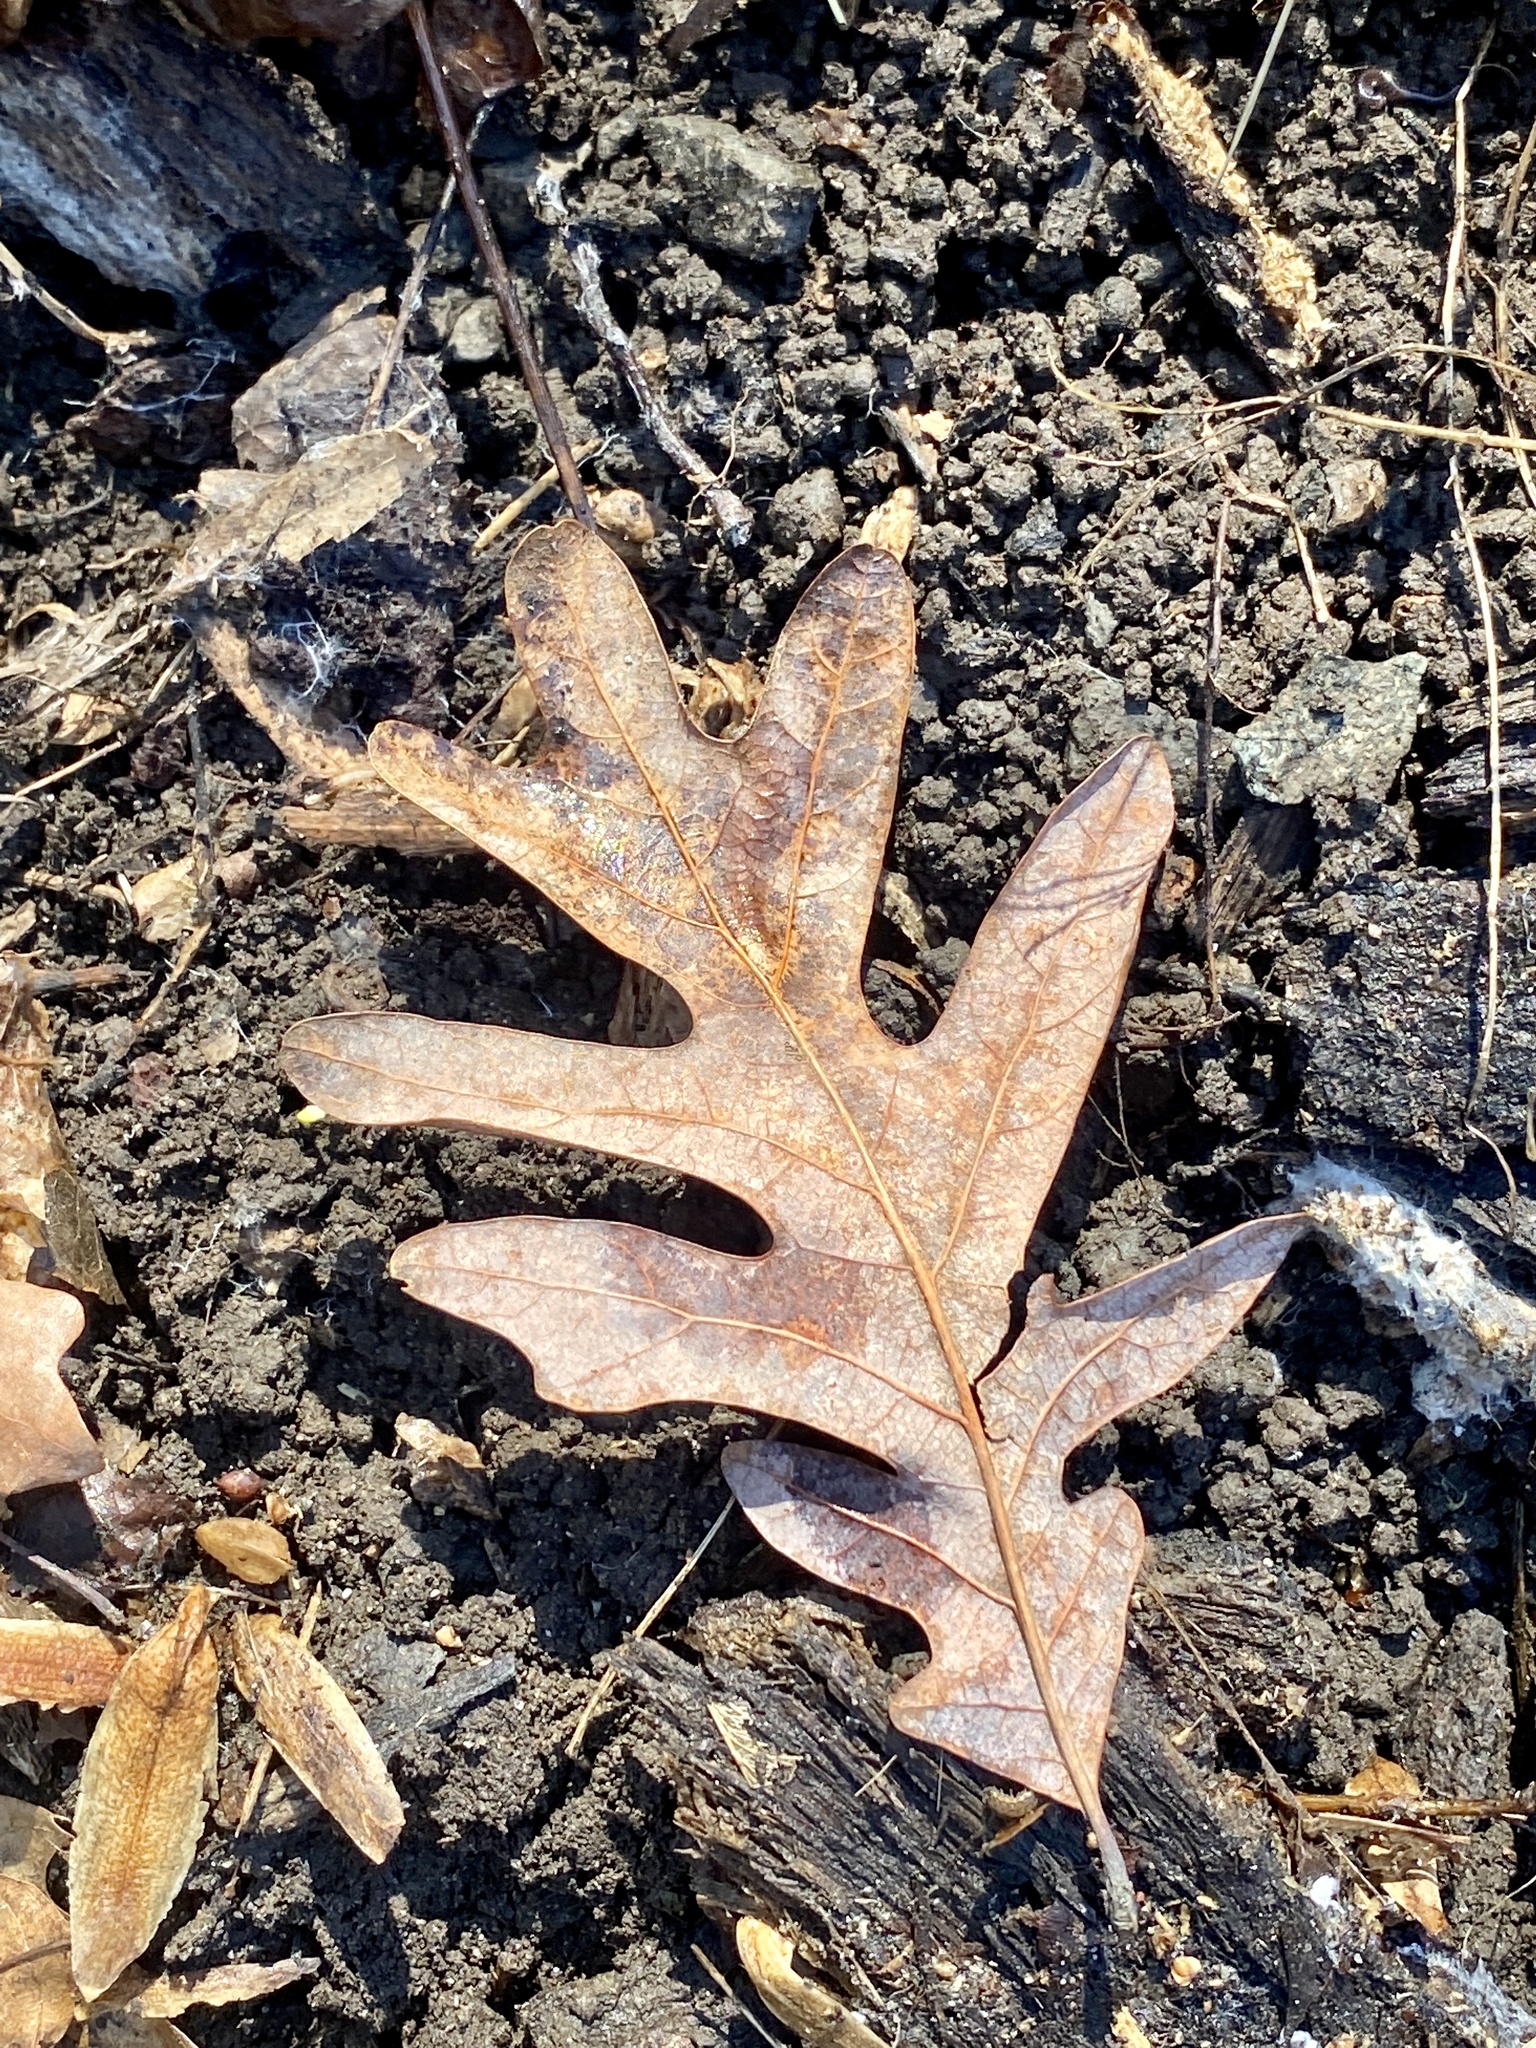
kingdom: Plantae
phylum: Tracheophyta
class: Magnoliopsida
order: Fagales
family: Fagaceae
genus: Quercus
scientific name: Quercus alba
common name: White oak
